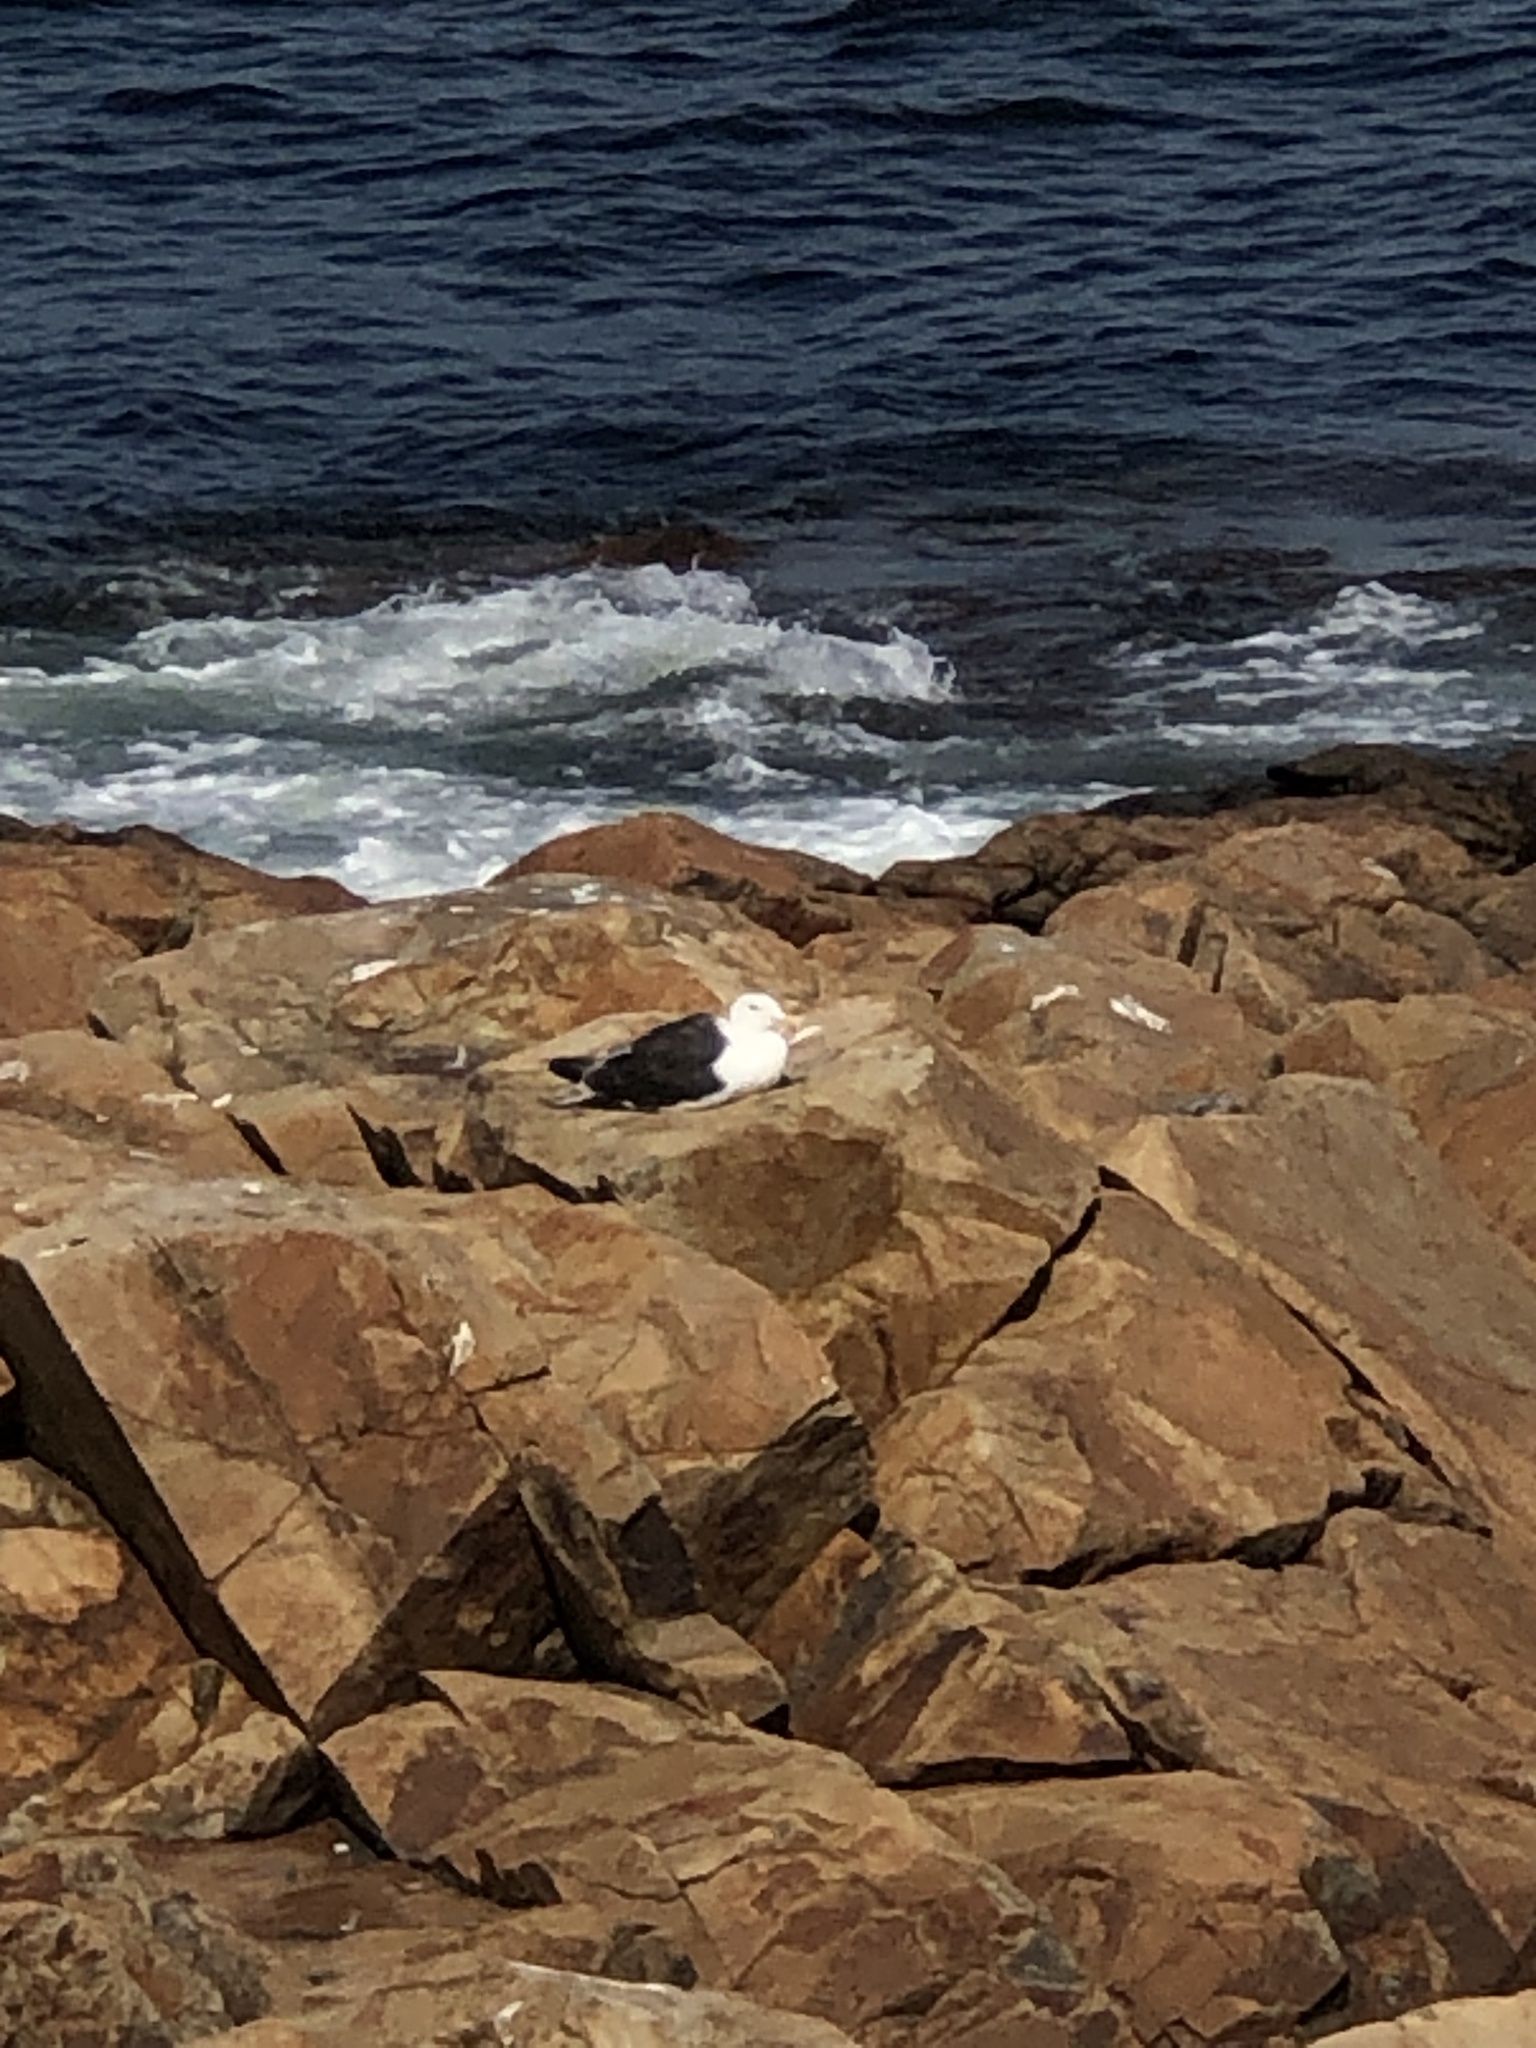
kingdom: Animalia
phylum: Chordata
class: Aves
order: Charadriiformes
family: Laridae
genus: Larus
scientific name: Larus marinus
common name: Great black-backed gull
